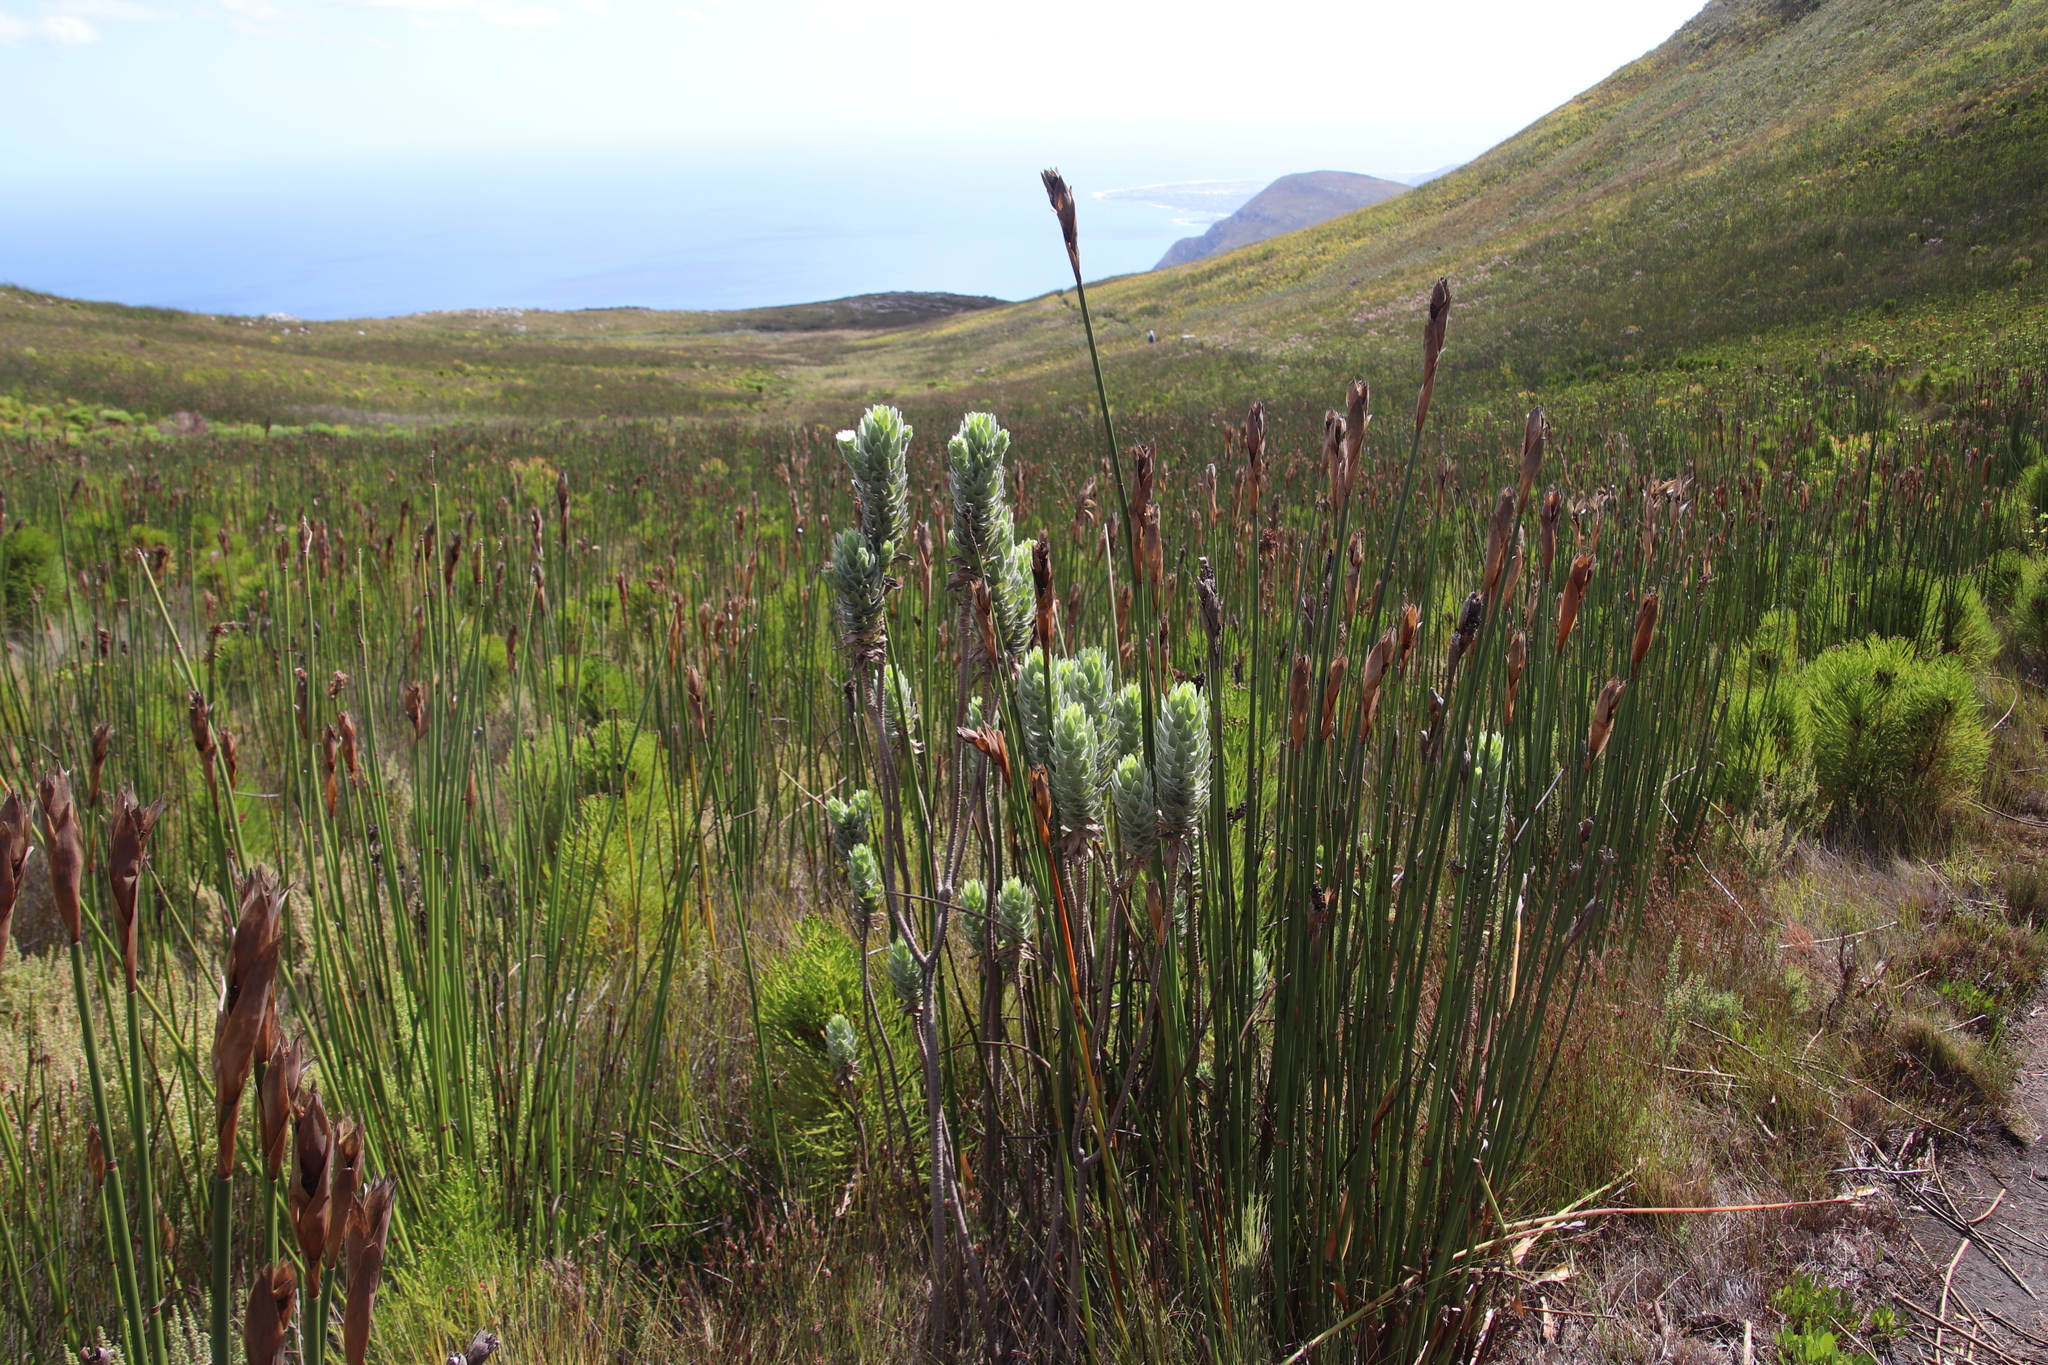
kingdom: Plantae
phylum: Tracheophyta
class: Magnoliopsida
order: Asterales
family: Asteraceae
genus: Osmitopsis
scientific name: Osmitopsis asteriscoides
